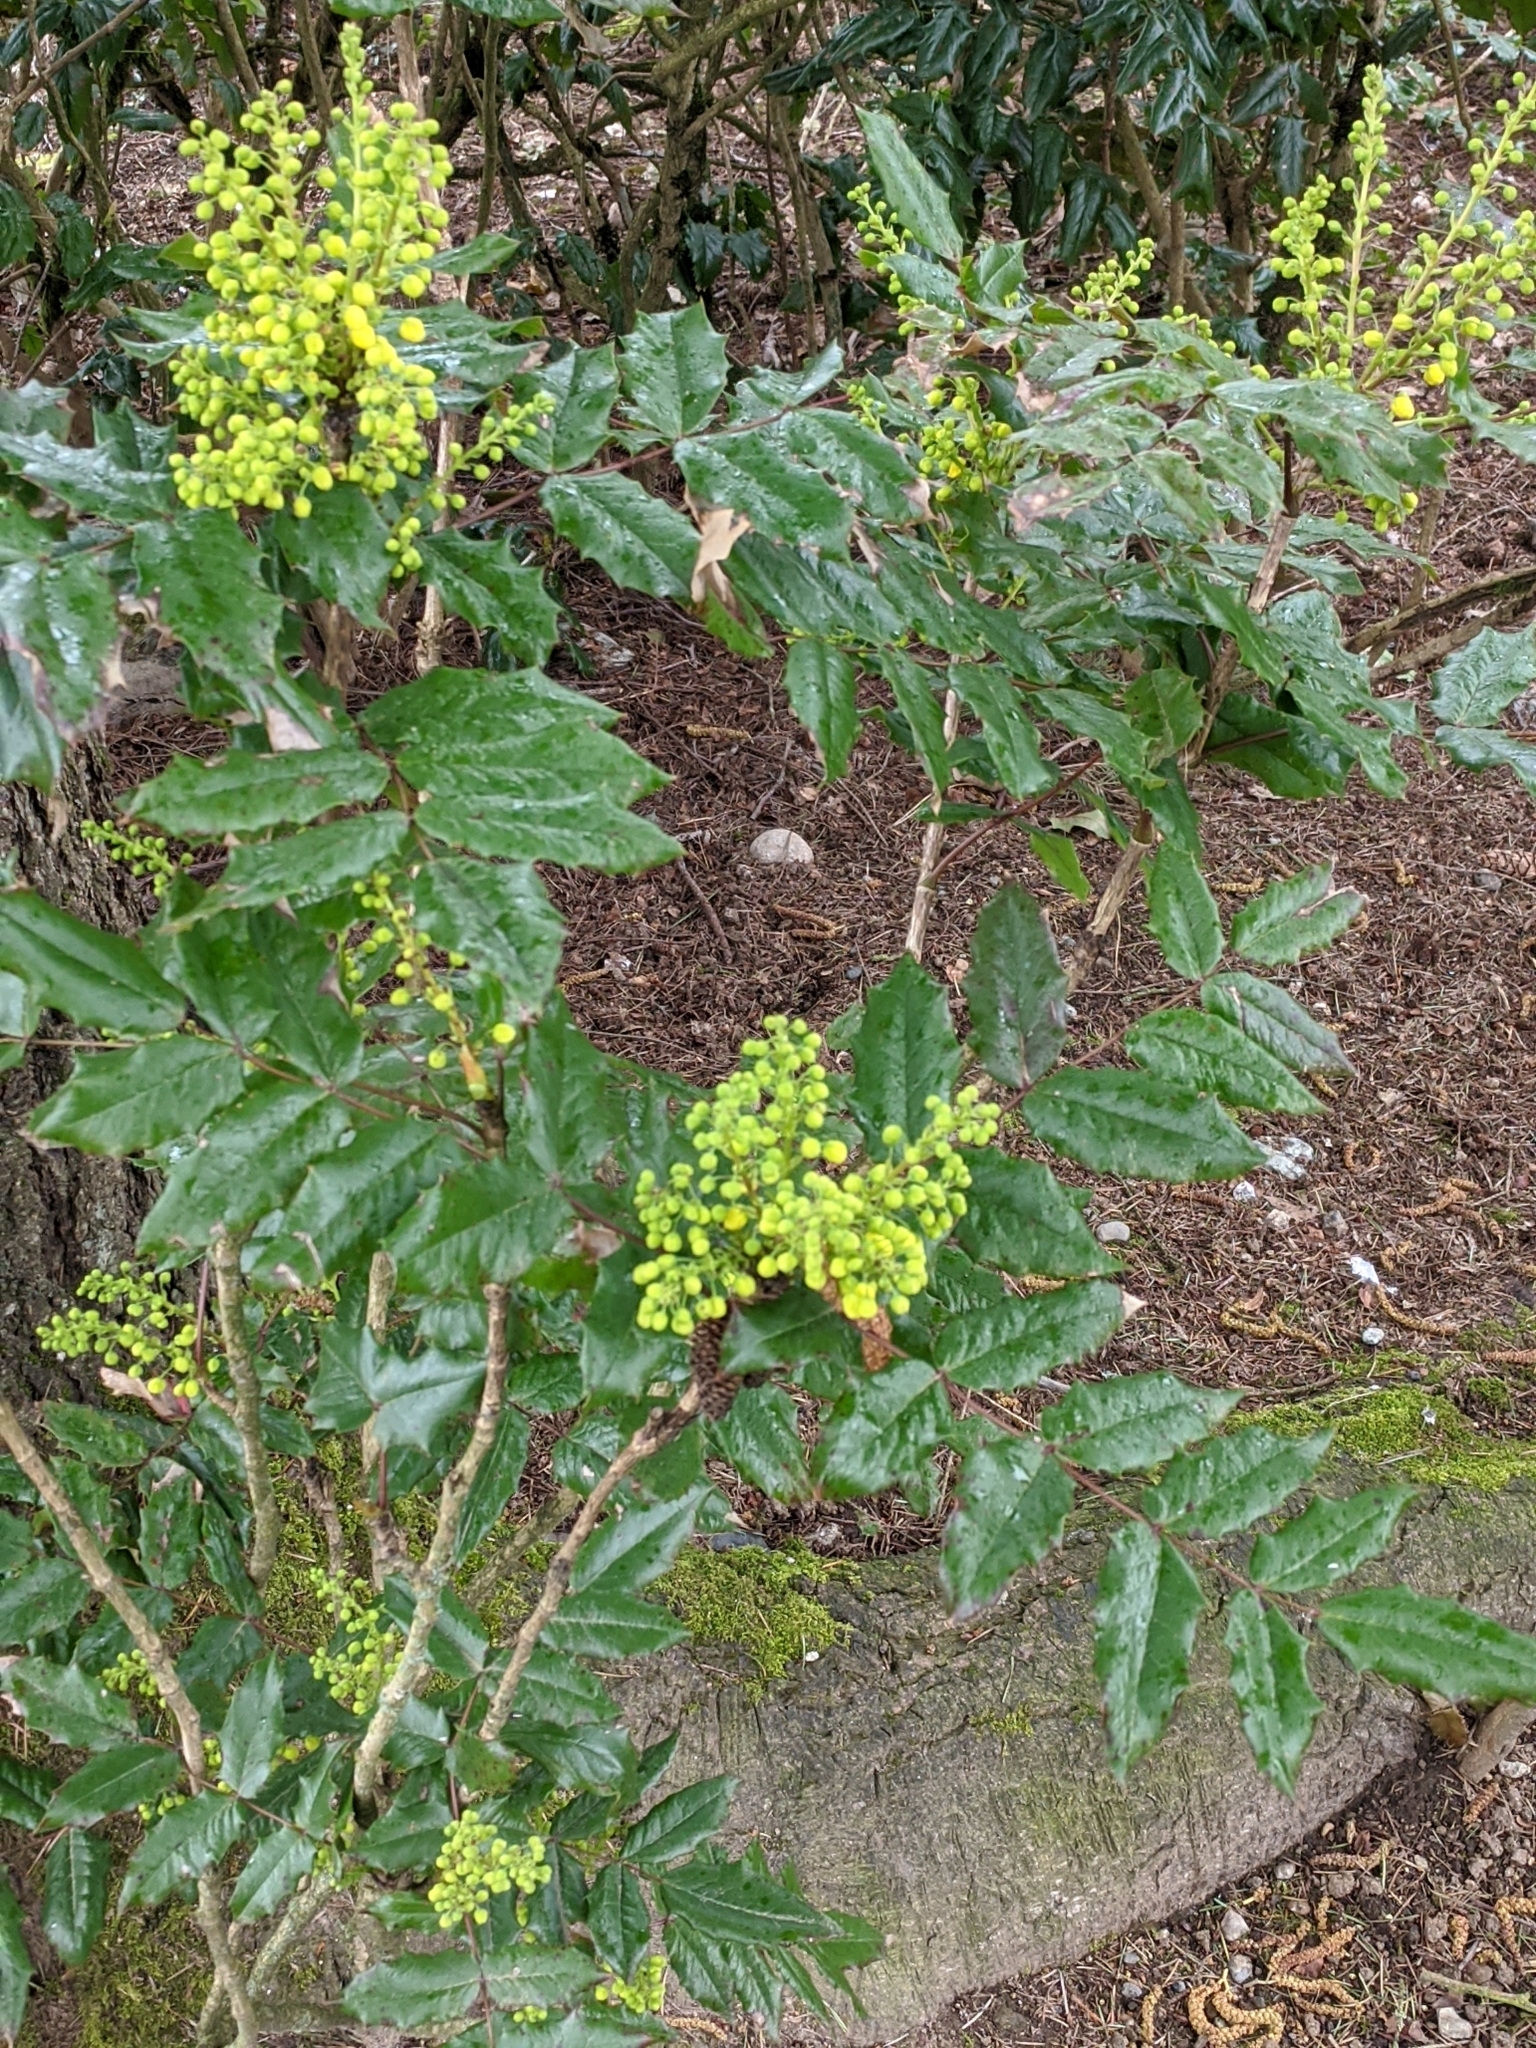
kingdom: Plantae
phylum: Tracheophyta
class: Magnoliopsida
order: Ranunculales
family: Berberidaceae
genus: Mahonia
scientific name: Mahonia aquifolium
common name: Oregon-grape
